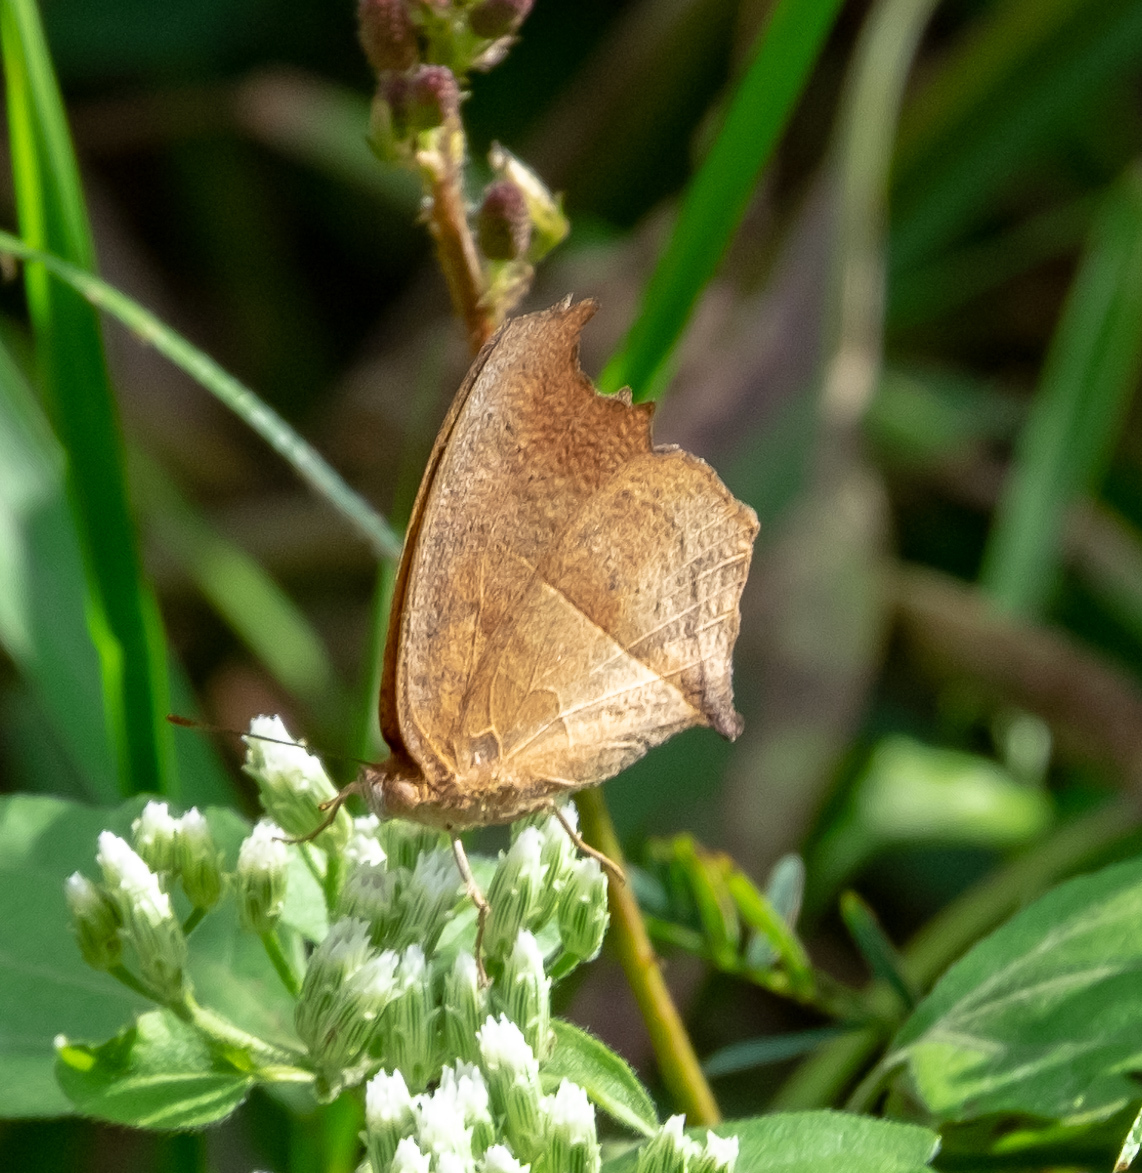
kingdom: Animalia
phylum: Arthropoda
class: Insecta
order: Lepidoptera
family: Nymphalidae
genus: Junonia
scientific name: Junonia almana
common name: Peacock pansy
